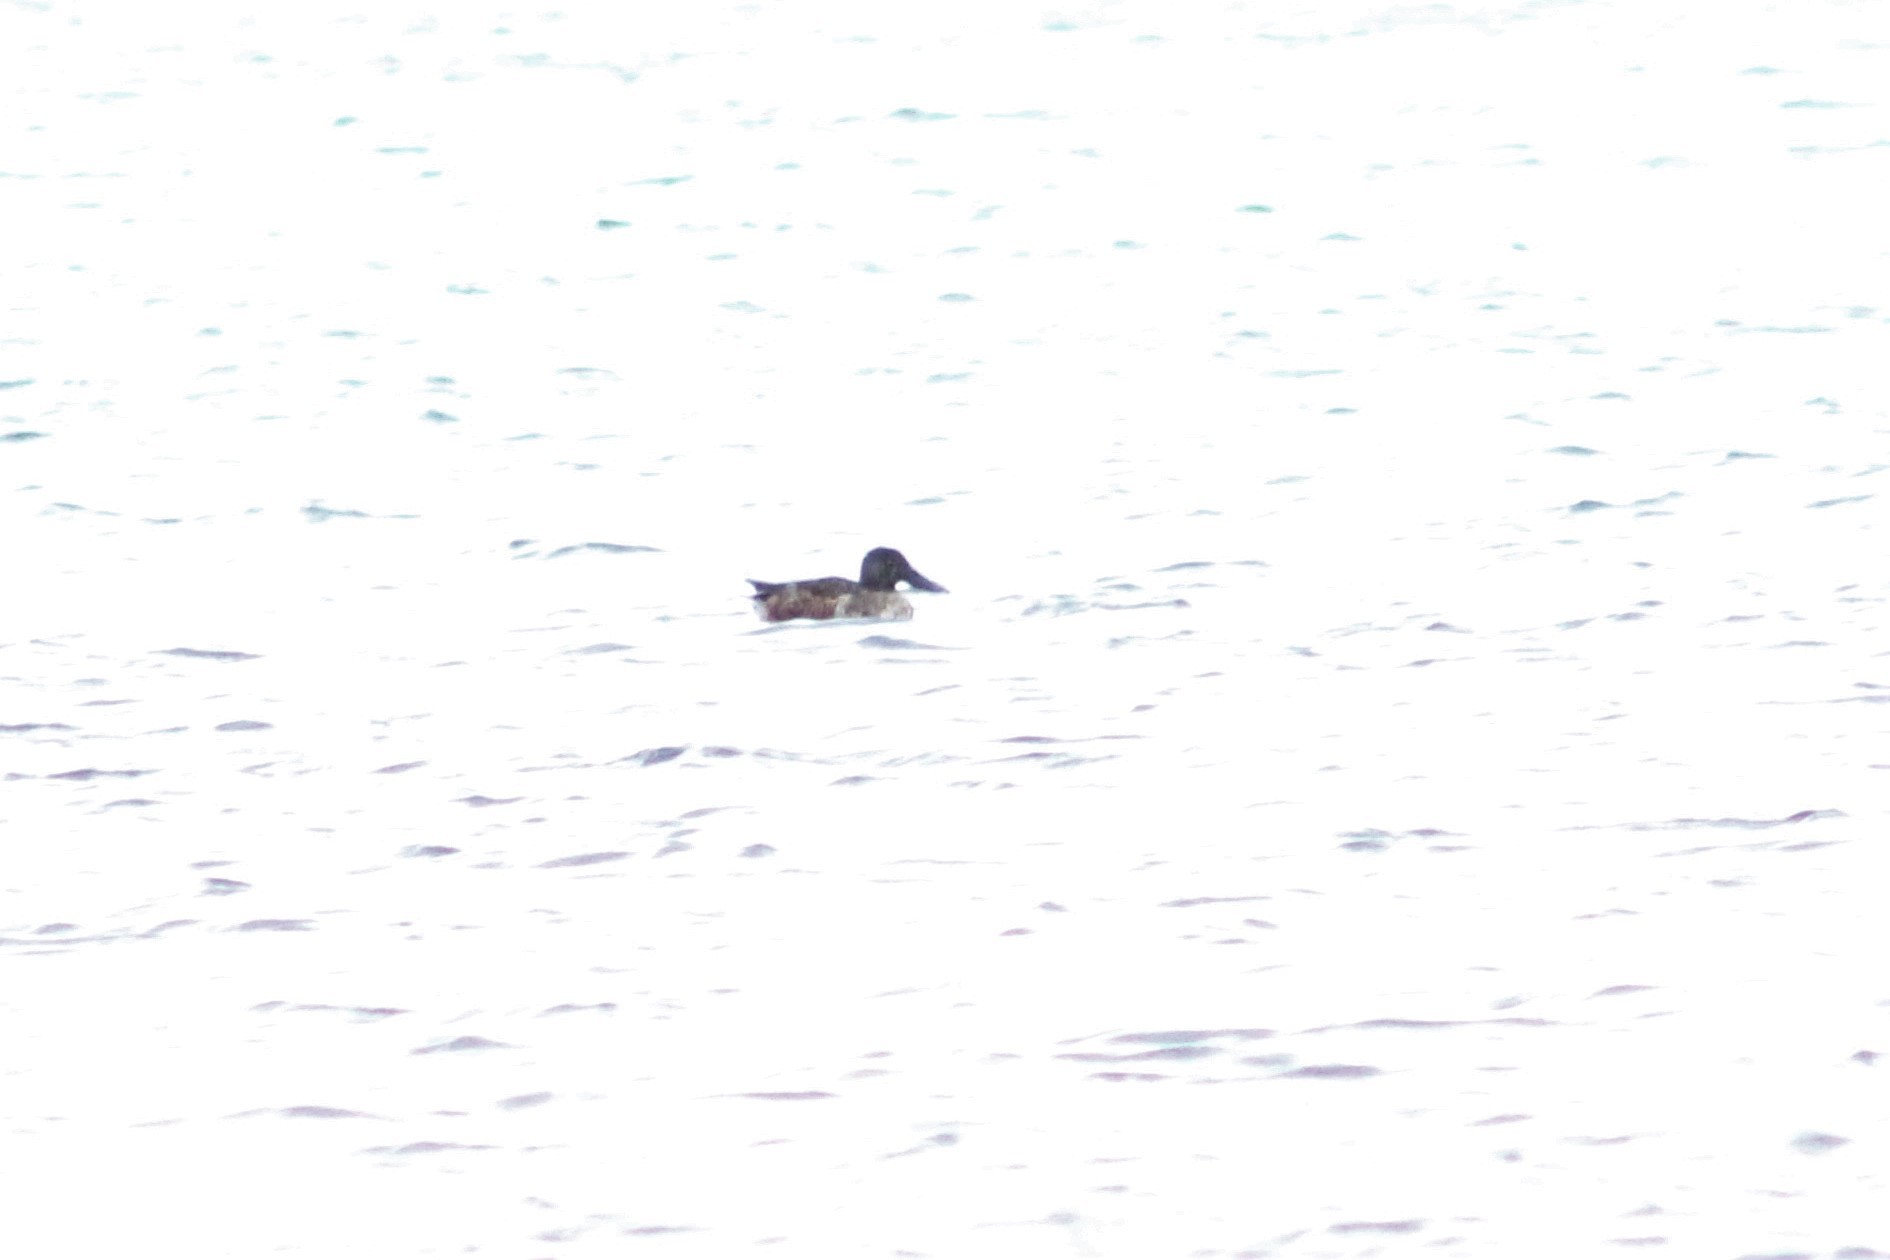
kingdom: Animalia
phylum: Chordata
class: Aves
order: Anseriformes
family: Anatidae
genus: Spatula
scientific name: Spatula clypeata
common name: Northern shoveler
